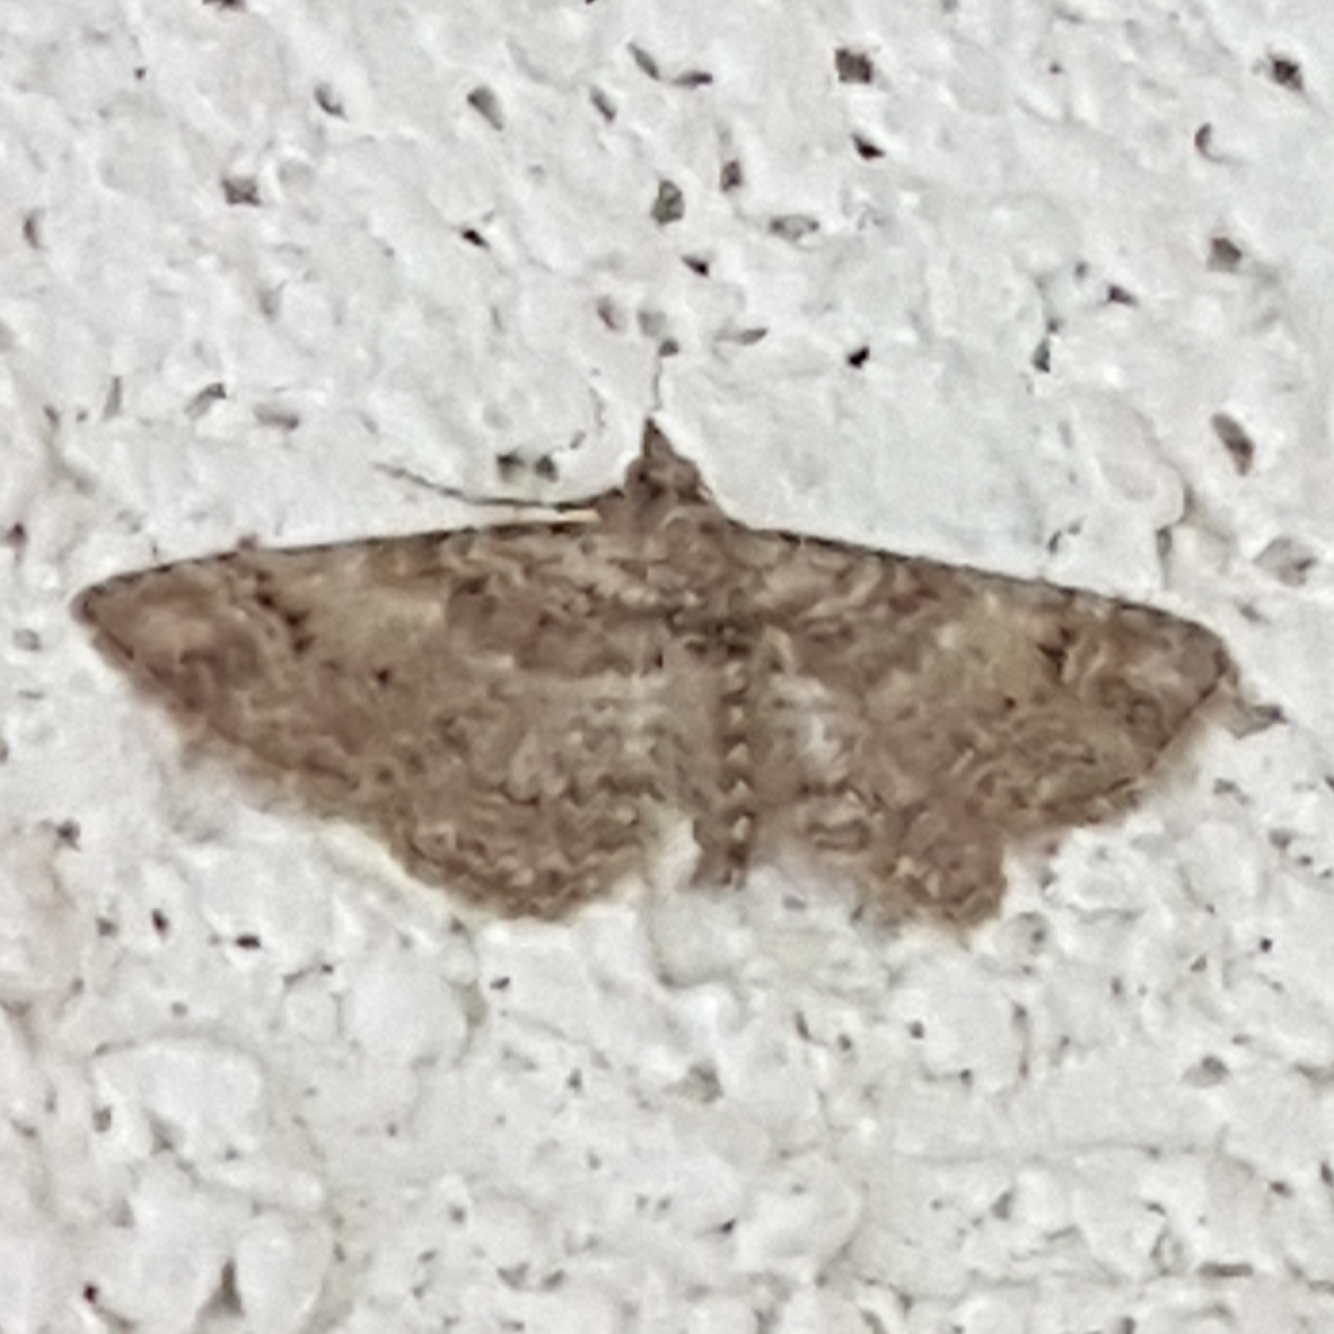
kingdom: Animalia
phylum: Arthropoda
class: Insecta
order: Lepidoptera
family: Geometridae
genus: Gymnoscelis
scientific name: Gymnoscelis rufifasciata
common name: Double-striped pug
